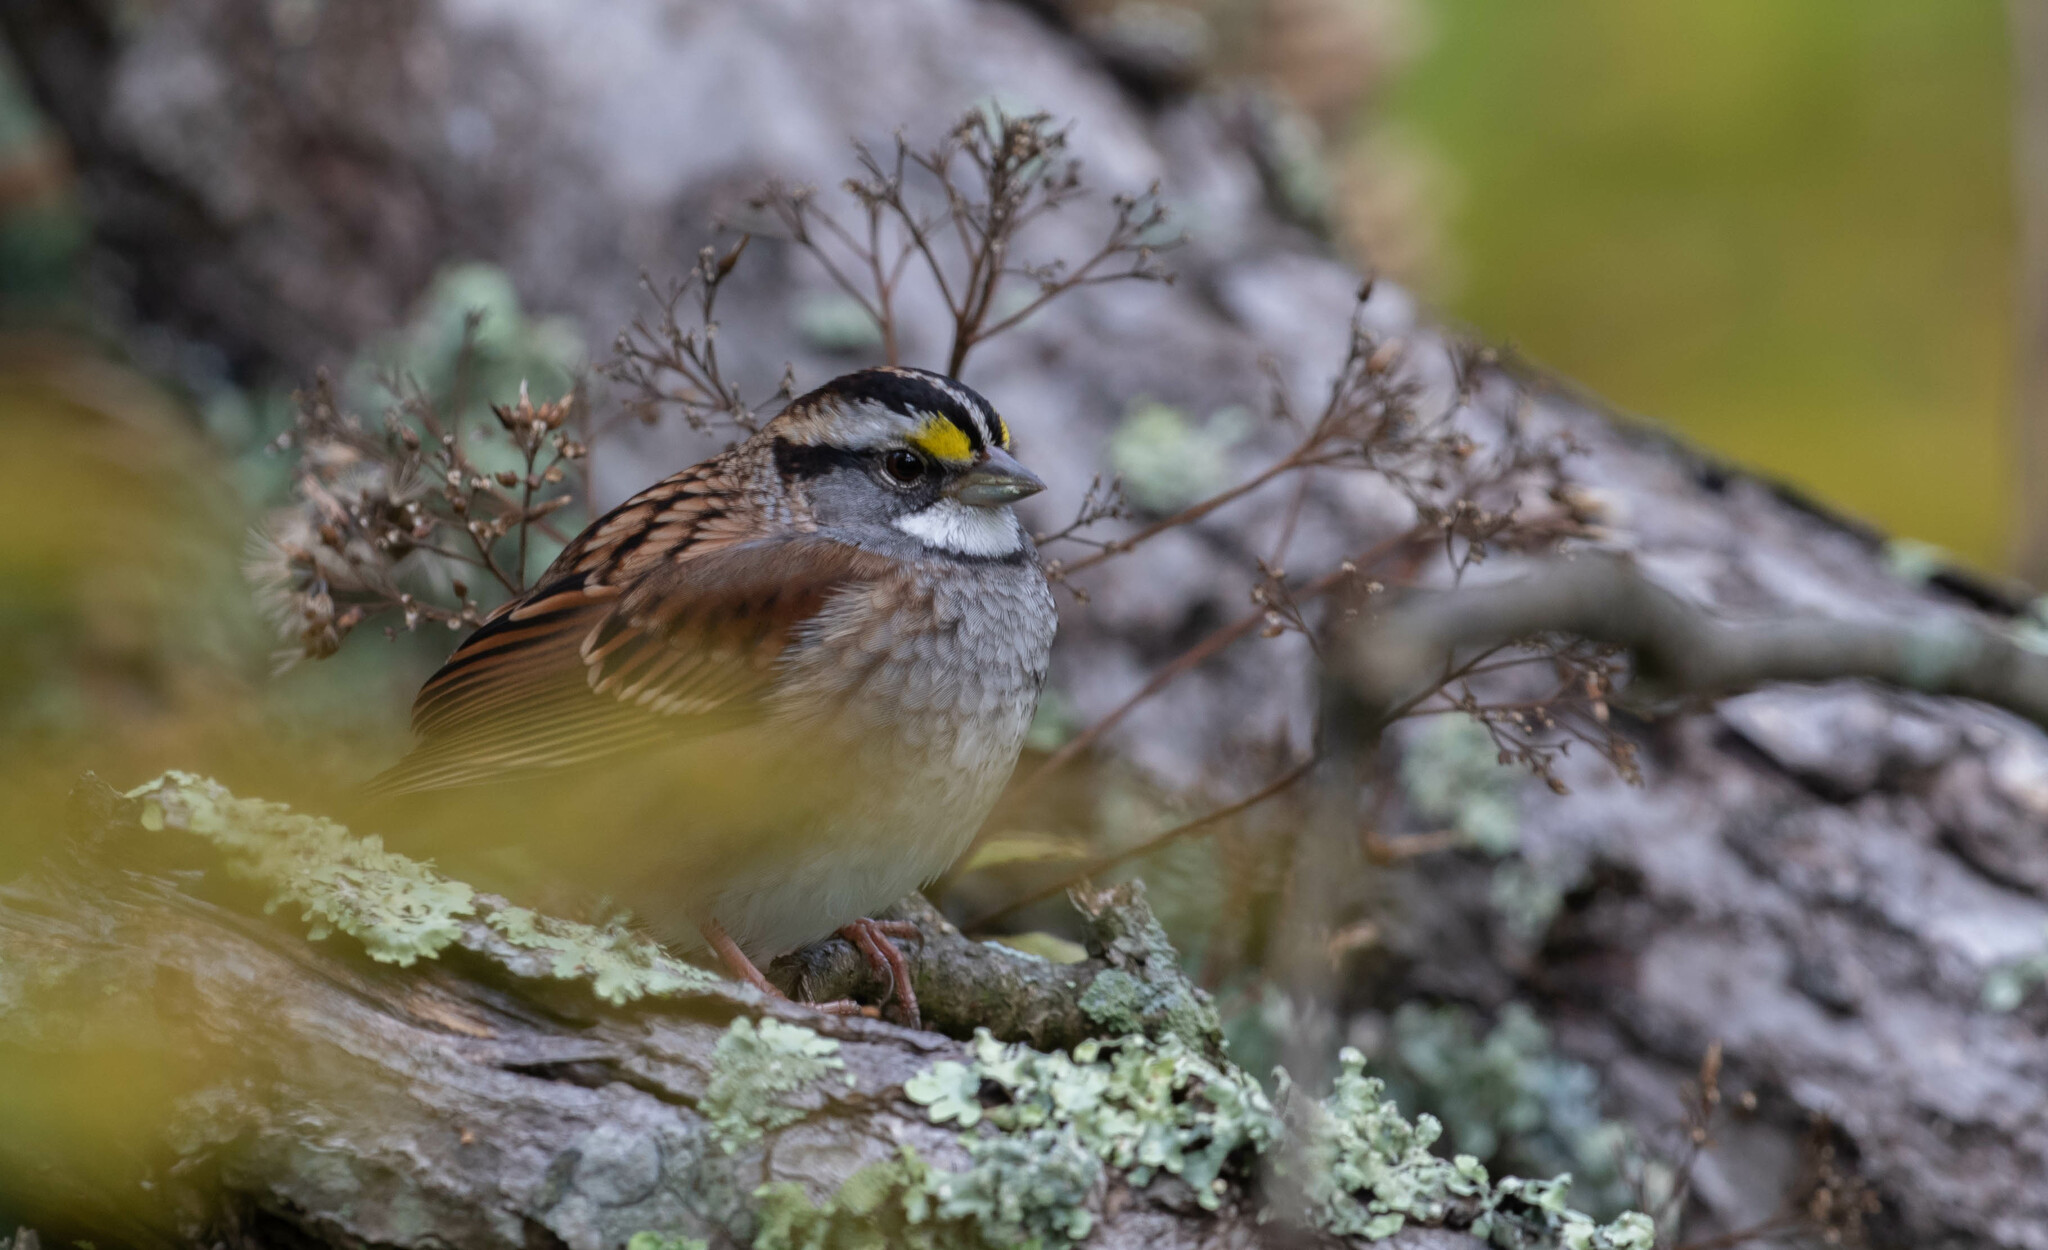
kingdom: Animalia
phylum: Chordata
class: Aves
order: Passeriformes
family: Passerellidae
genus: Zonotrichia
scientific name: Zonotrichia albicollis
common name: White-throated sparrow
